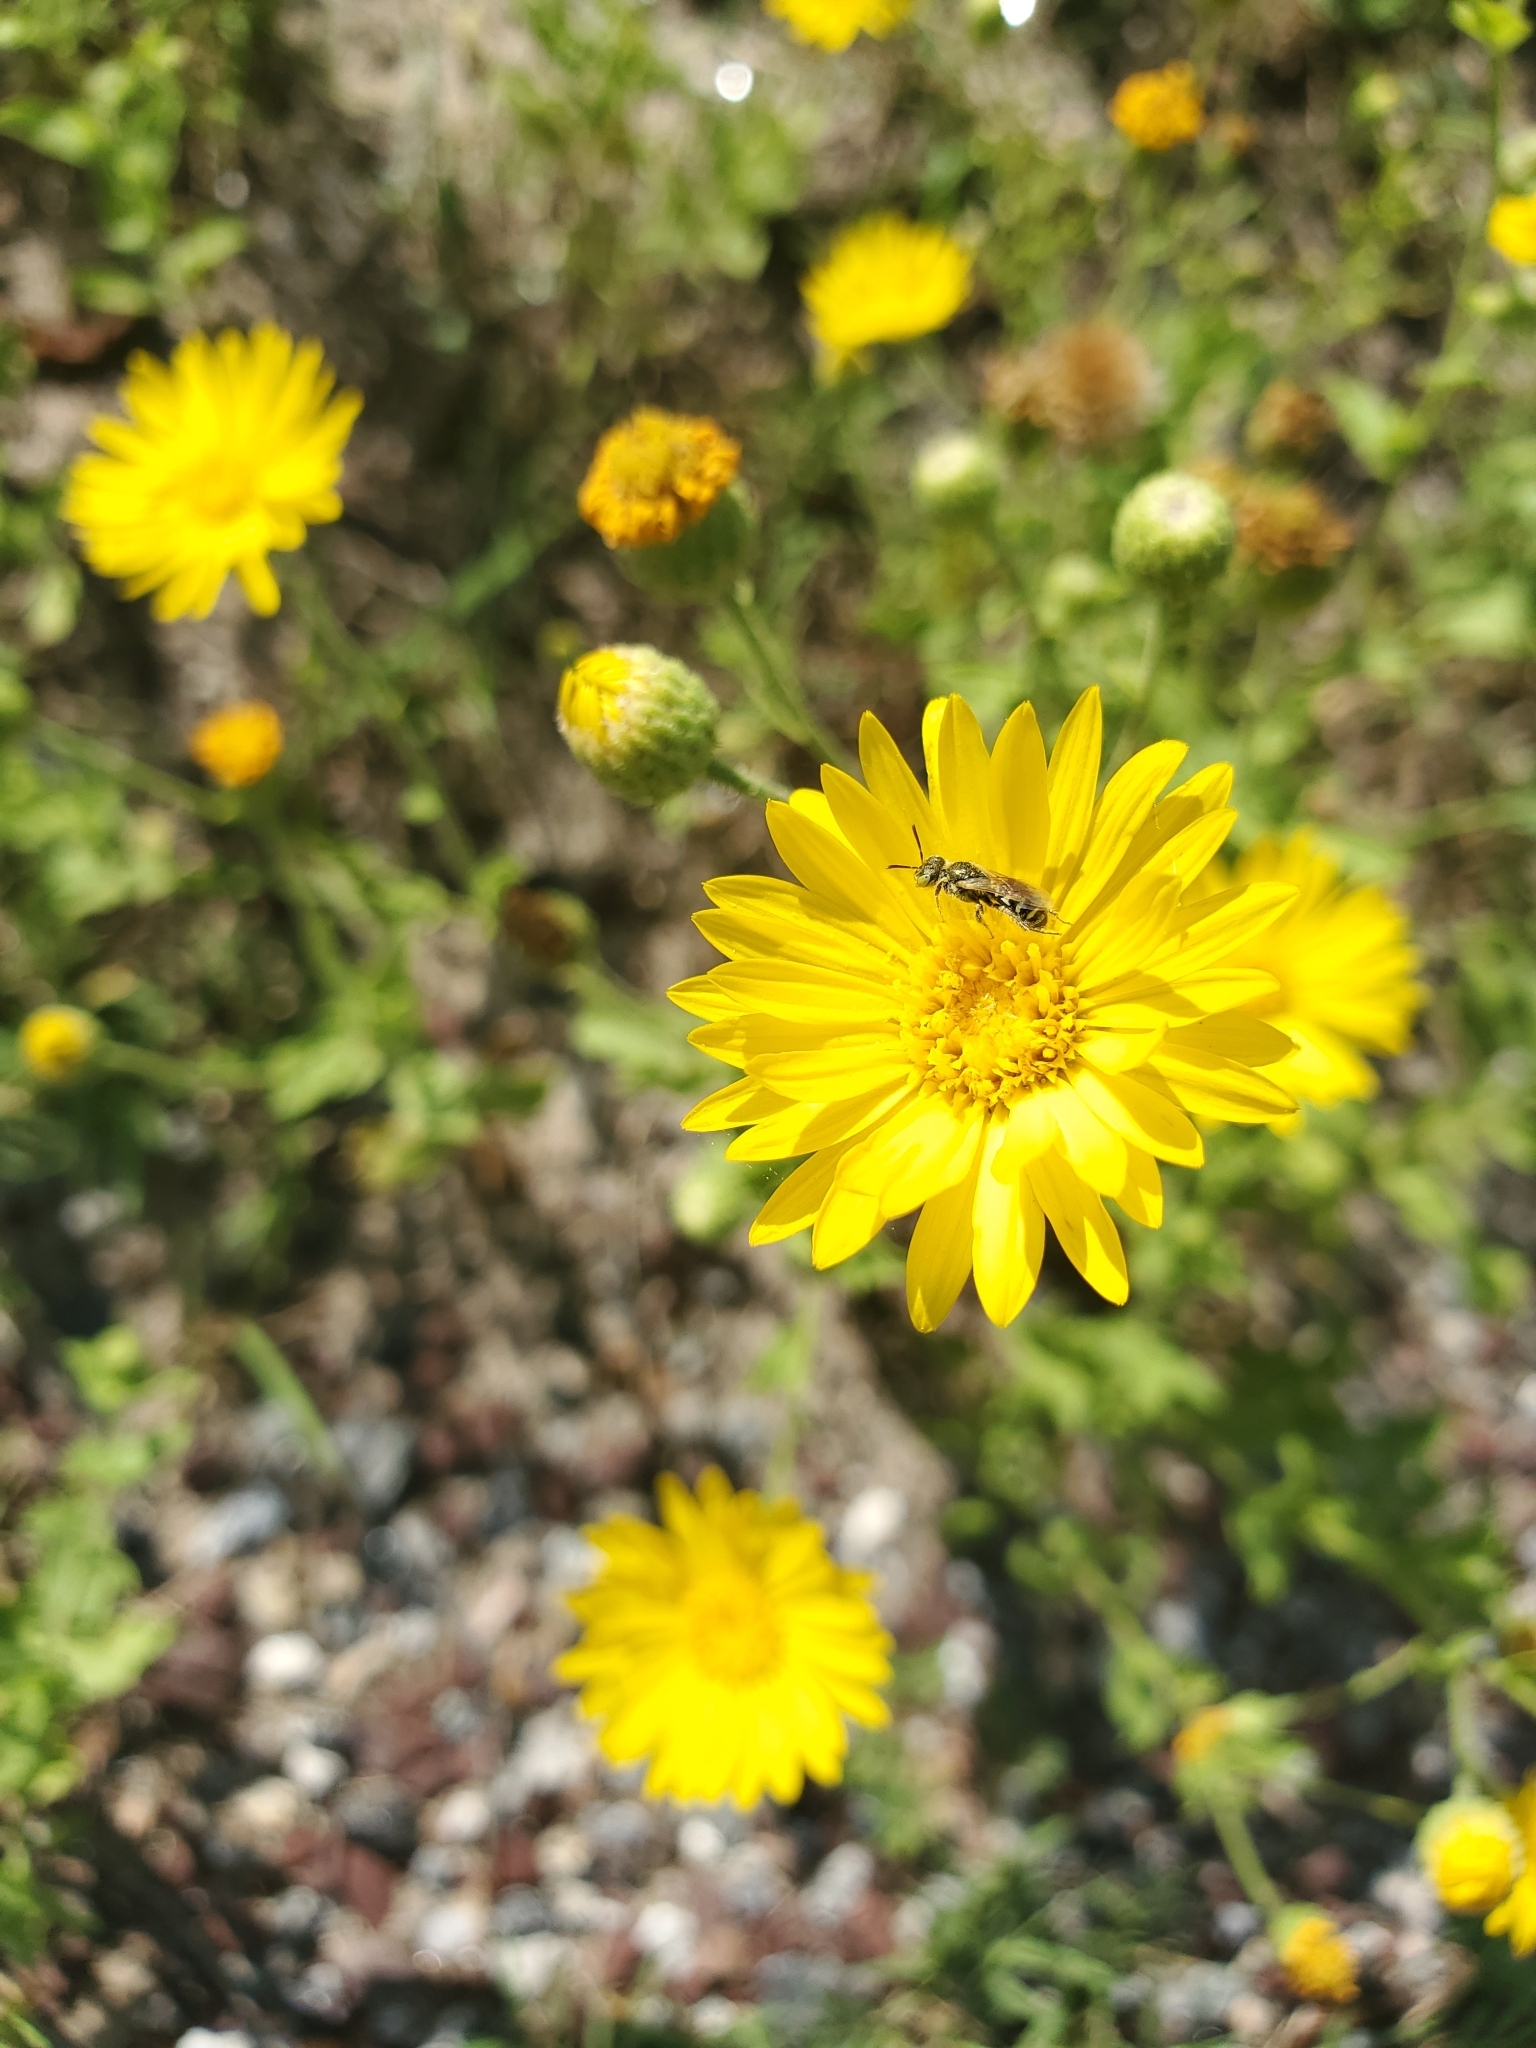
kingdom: Animalia
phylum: Arthropoda
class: Insecta
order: Hymenoptera
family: Andrenidae
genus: Perdita
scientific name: Perdita swenki
